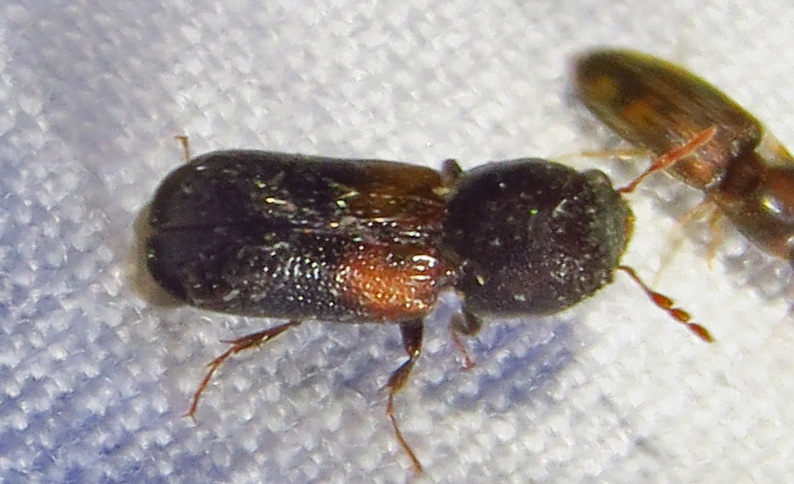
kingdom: Animalia
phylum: Arthropoda
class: Insecta
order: Coleoptera
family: Bostrichidae
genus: Xylobiops
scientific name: Xylobiops basilaris
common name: Red-shouldered bostrichid
